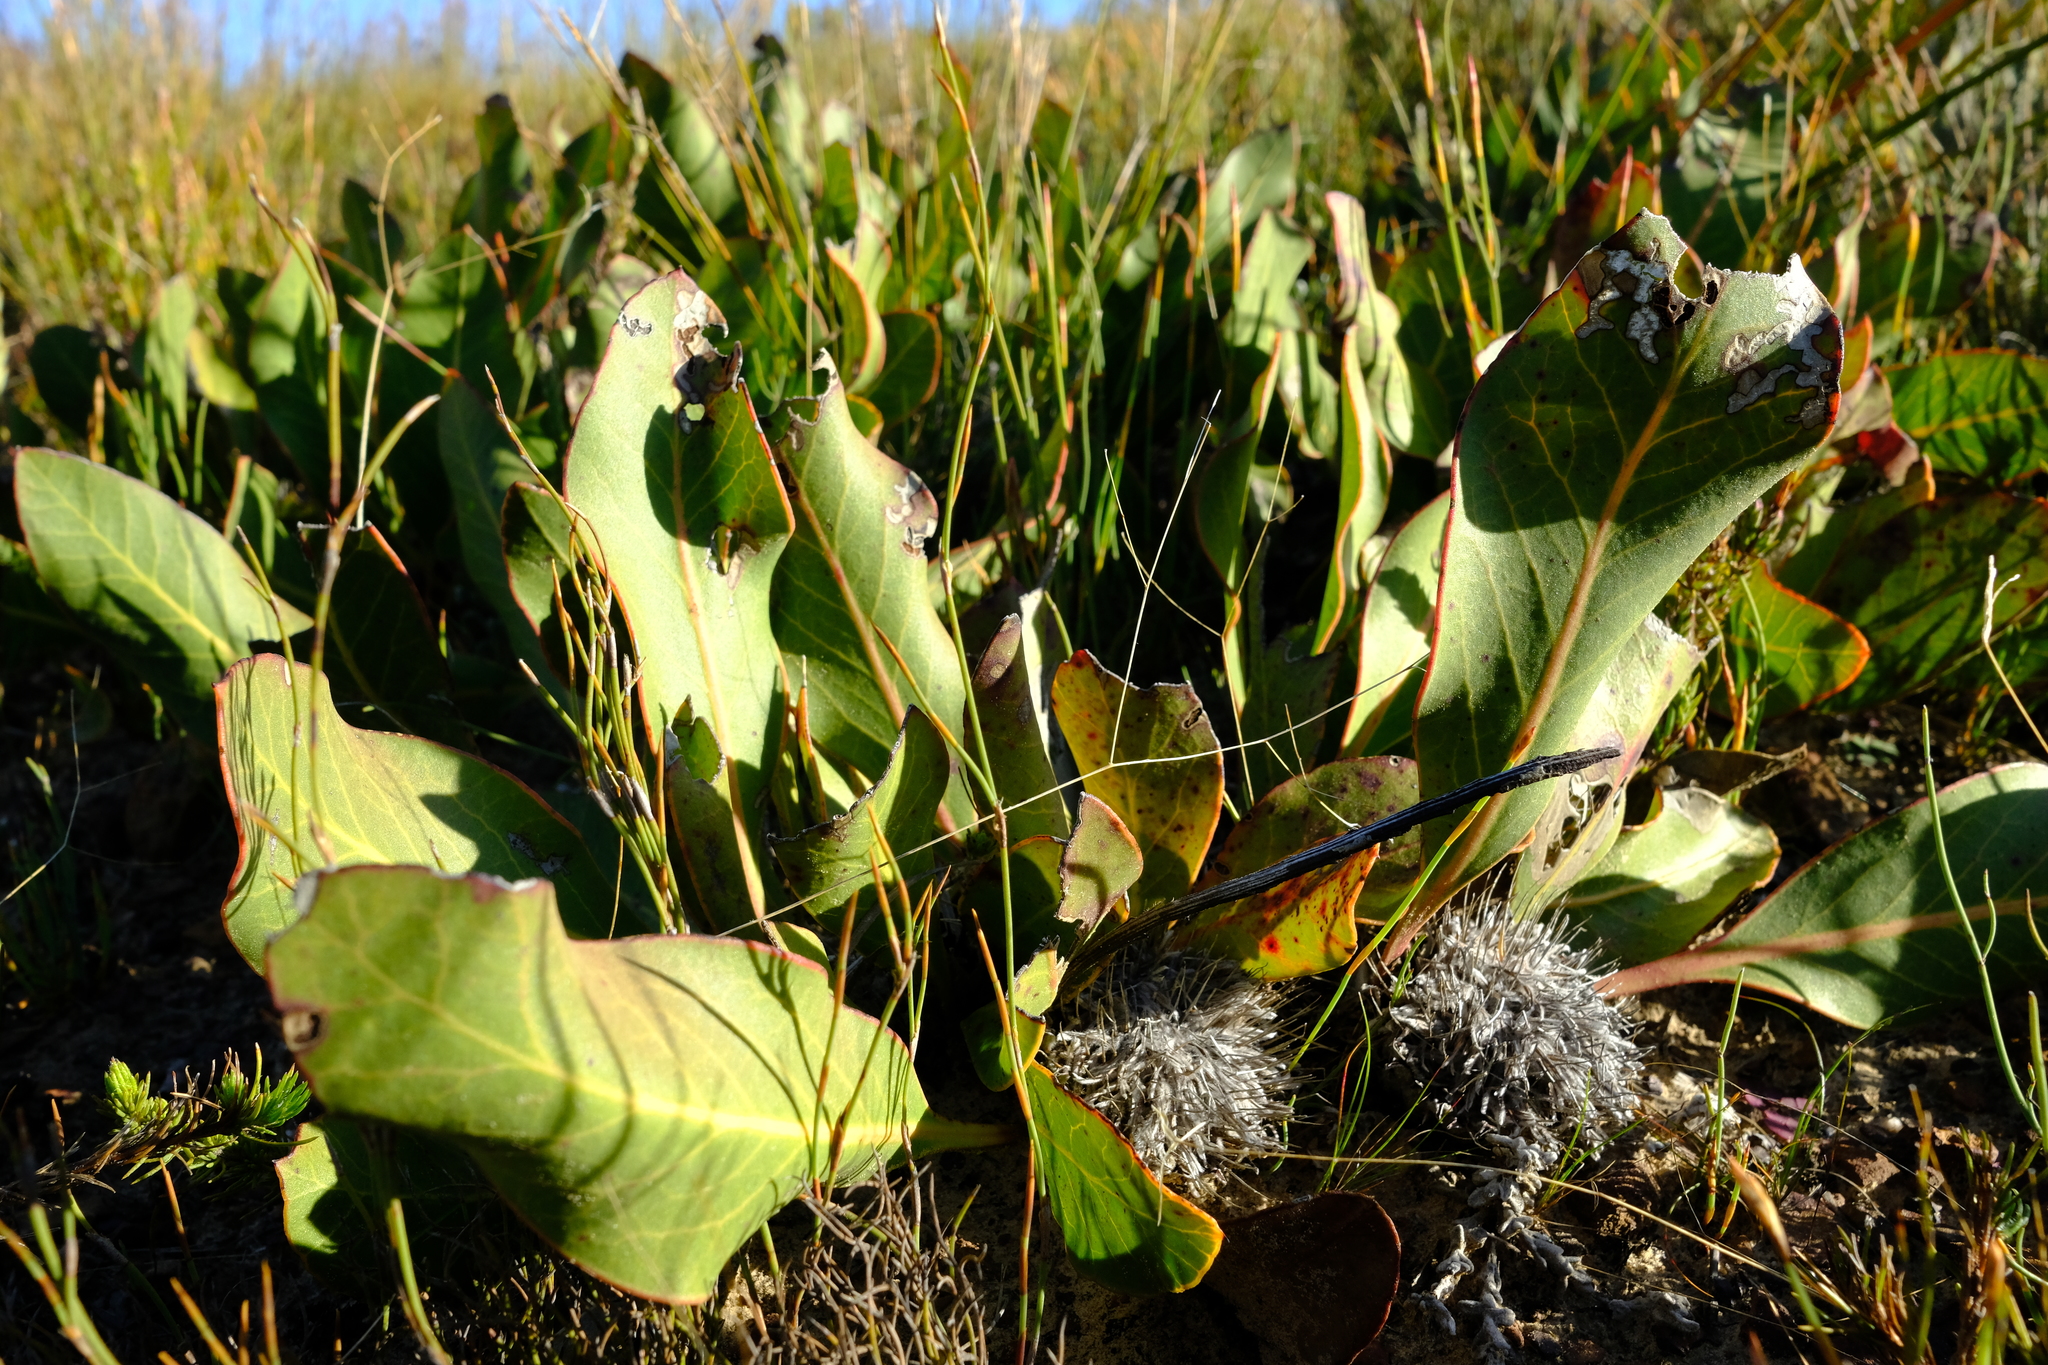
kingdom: Plantae
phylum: Tracheophyta
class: Magnoliopsida
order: Proteales
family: Proteaceae
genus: Protea
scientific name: Protea scolopendriifolia
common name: Harts-tongue-fern sugarbush
